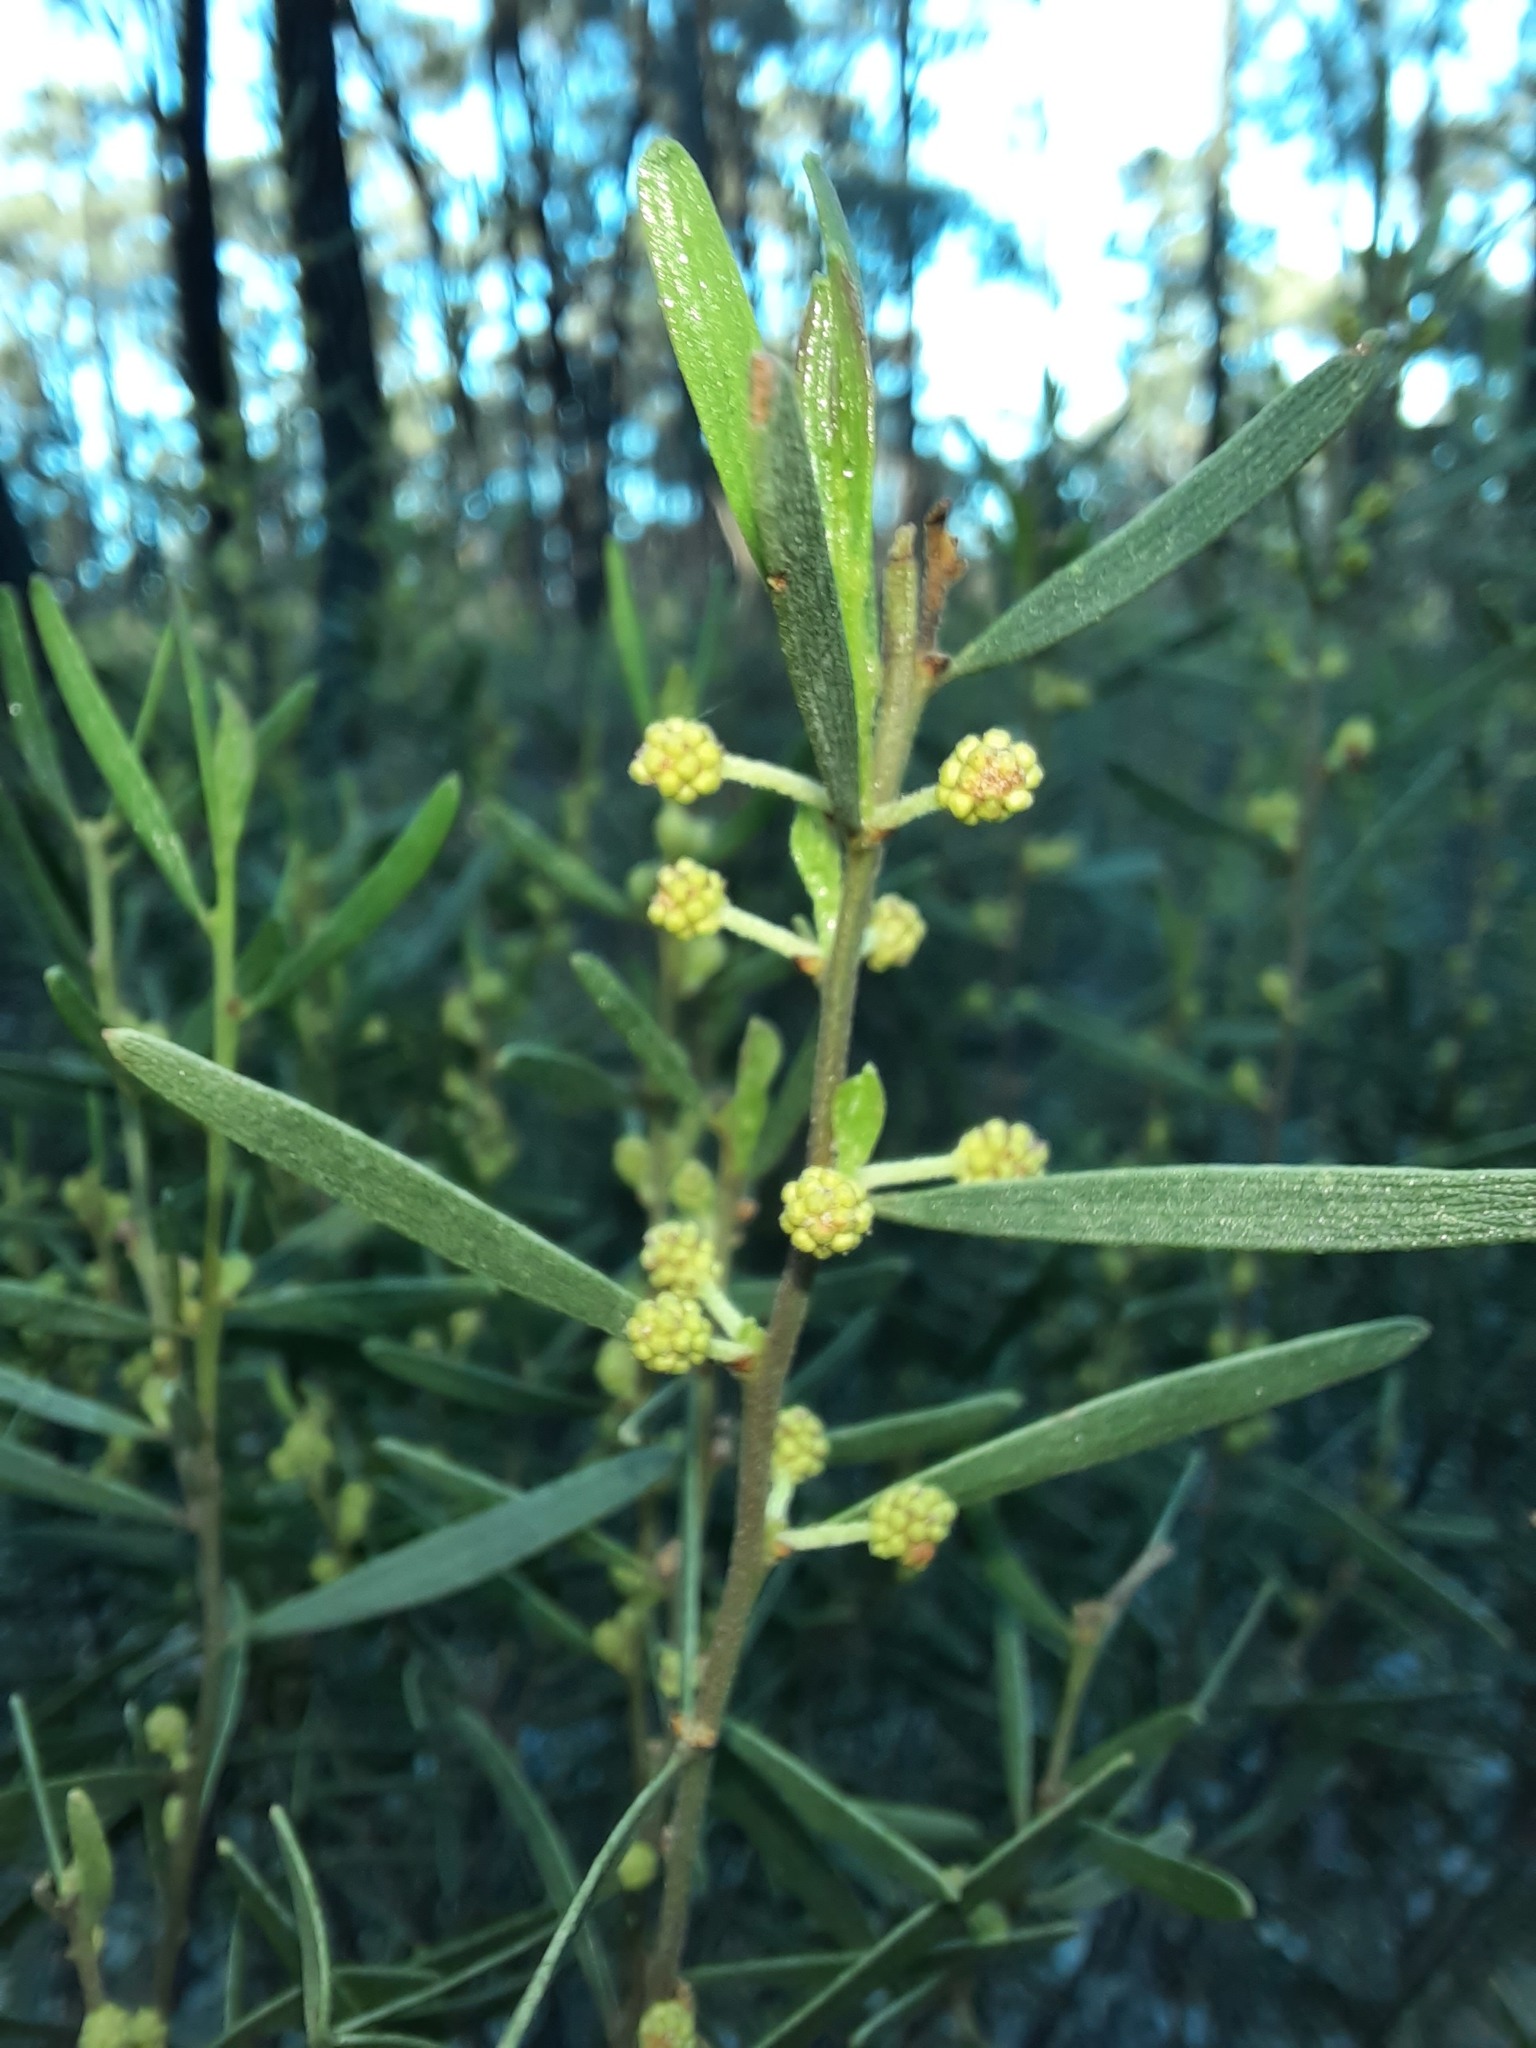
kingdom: Plantae
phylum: Tracheophyta
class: Magnoliopsida
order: Fabales
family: Fabaceae
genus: Acacia
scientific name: Acacia montana
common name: Mallee wattle
